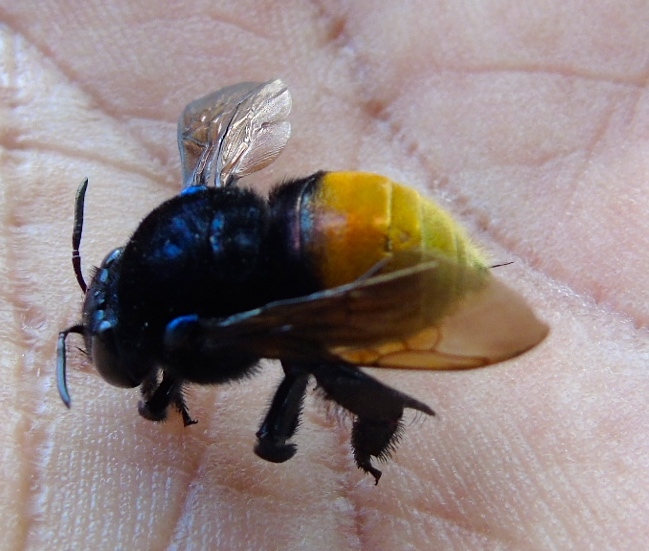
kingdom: Animalia
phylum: Arthropoda
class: Insecta
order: Hymenoptera
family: Apidae
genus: Apidae
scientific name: Apidae
